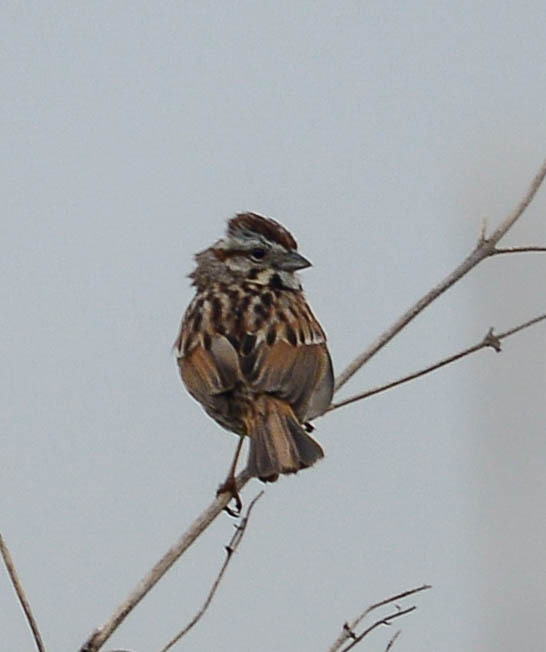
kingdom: Animalia
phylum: Chordata
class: Aves
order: Passeriformes
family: Passerellidae
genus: Melospiza
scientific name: Melospiza melodia
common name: Song sparrow
